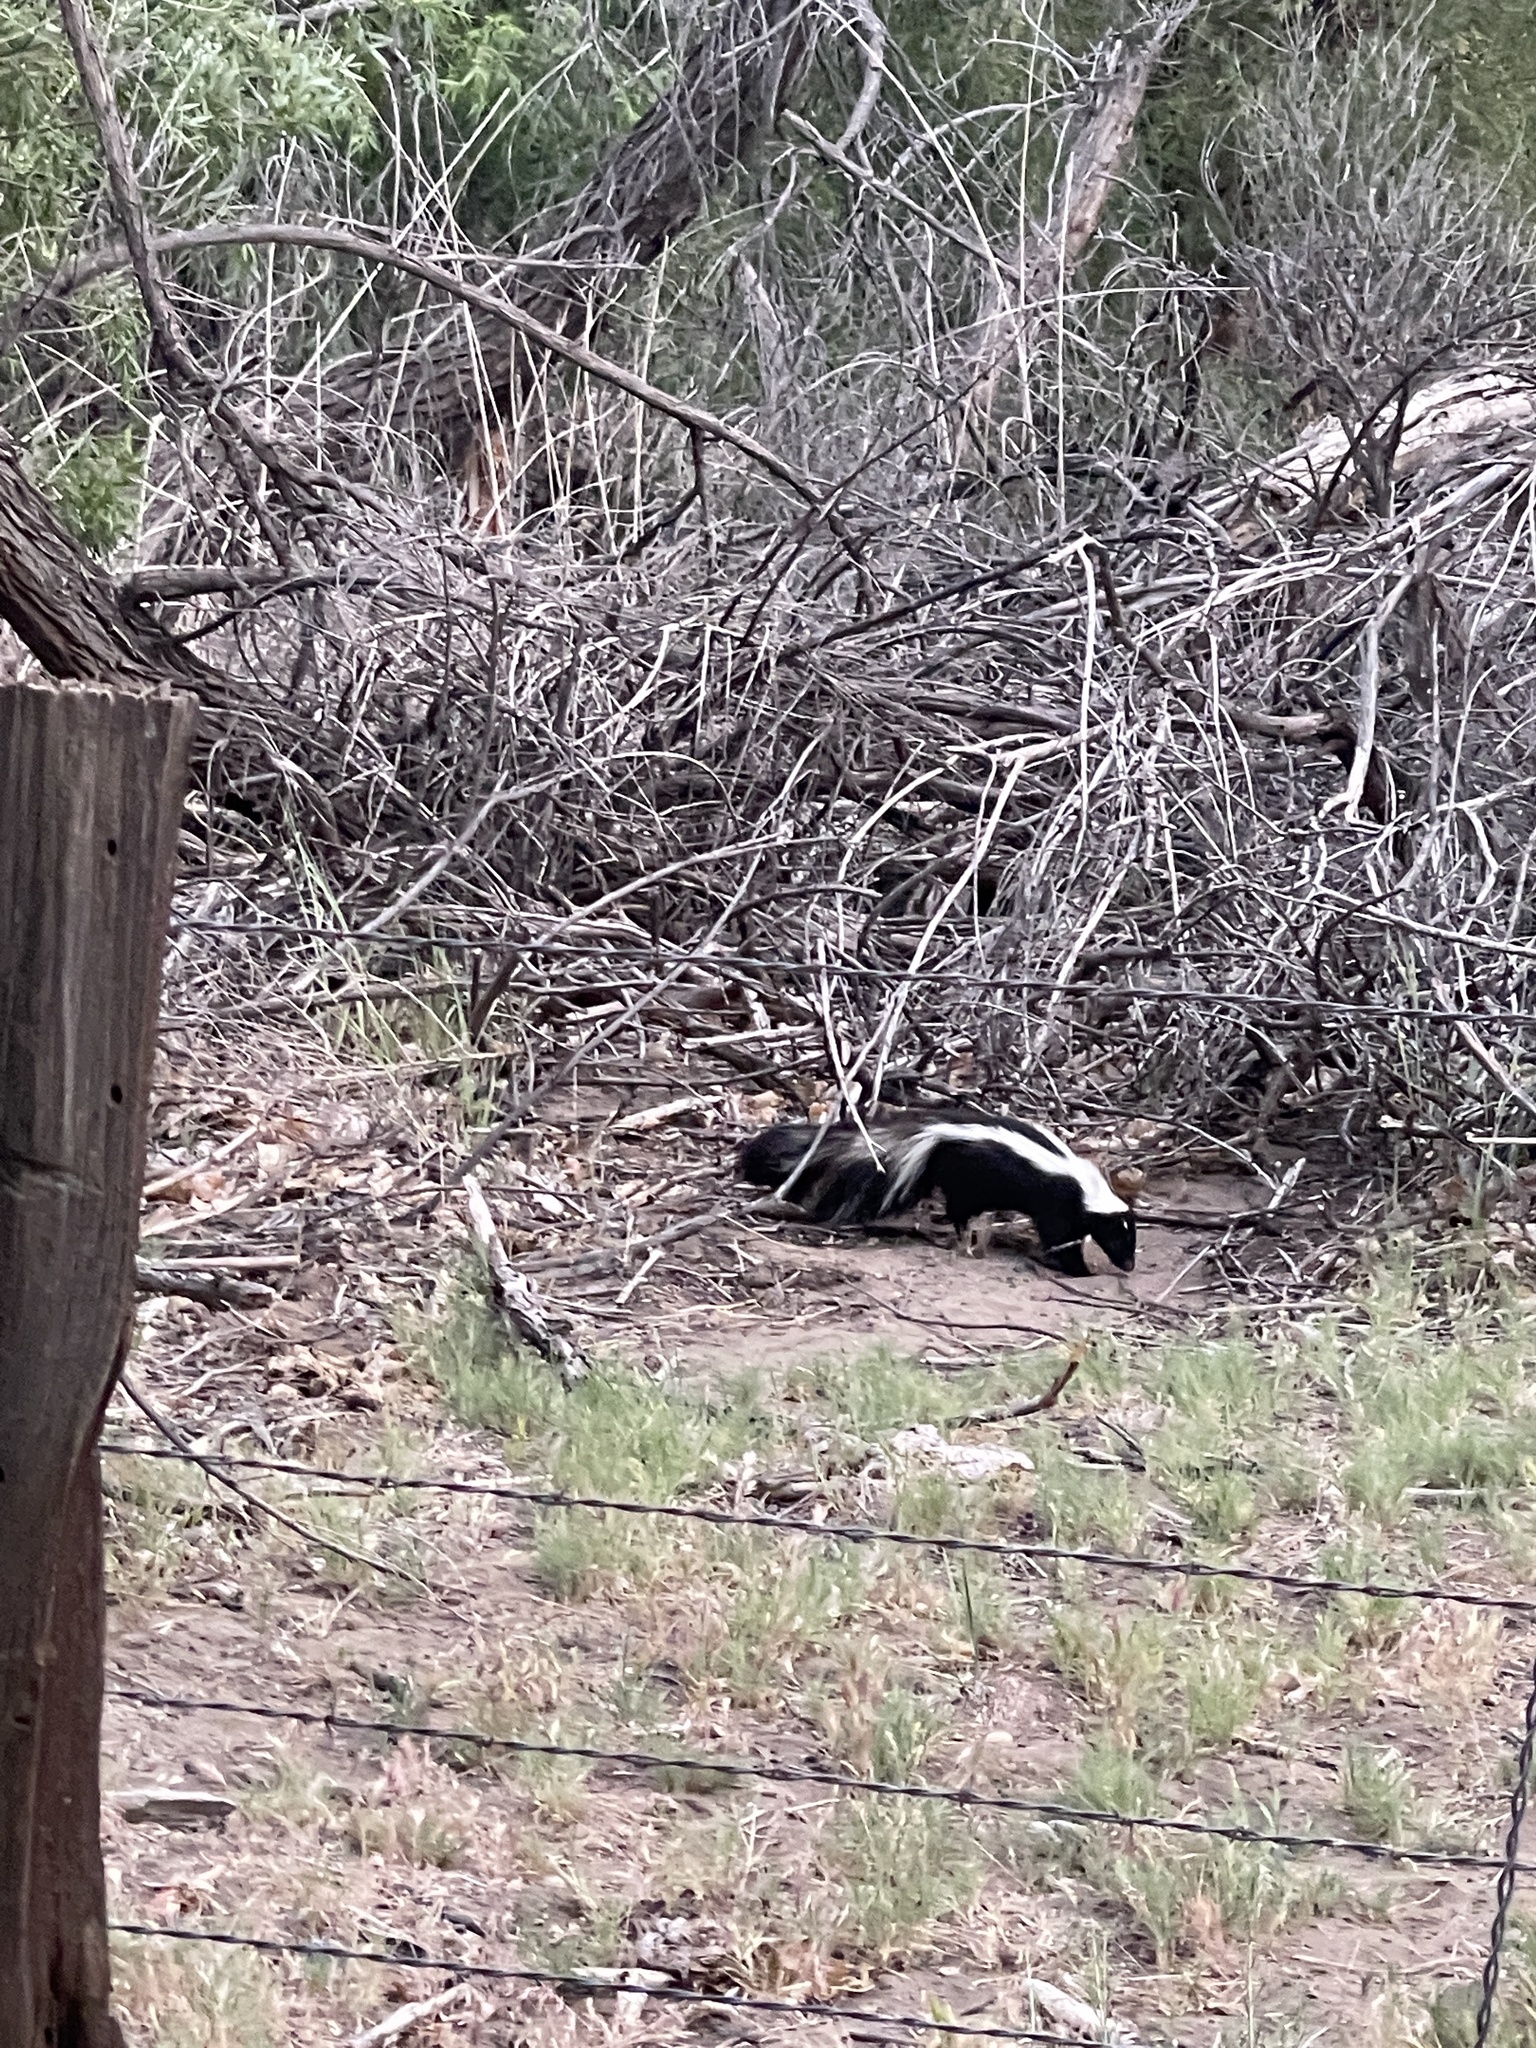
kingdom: Animalia
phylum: Chordata
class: Mammalia
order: Carnivora
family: Mephitidae
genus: Mephitis
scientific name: Mephitis mephitis
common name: Striped skunk
